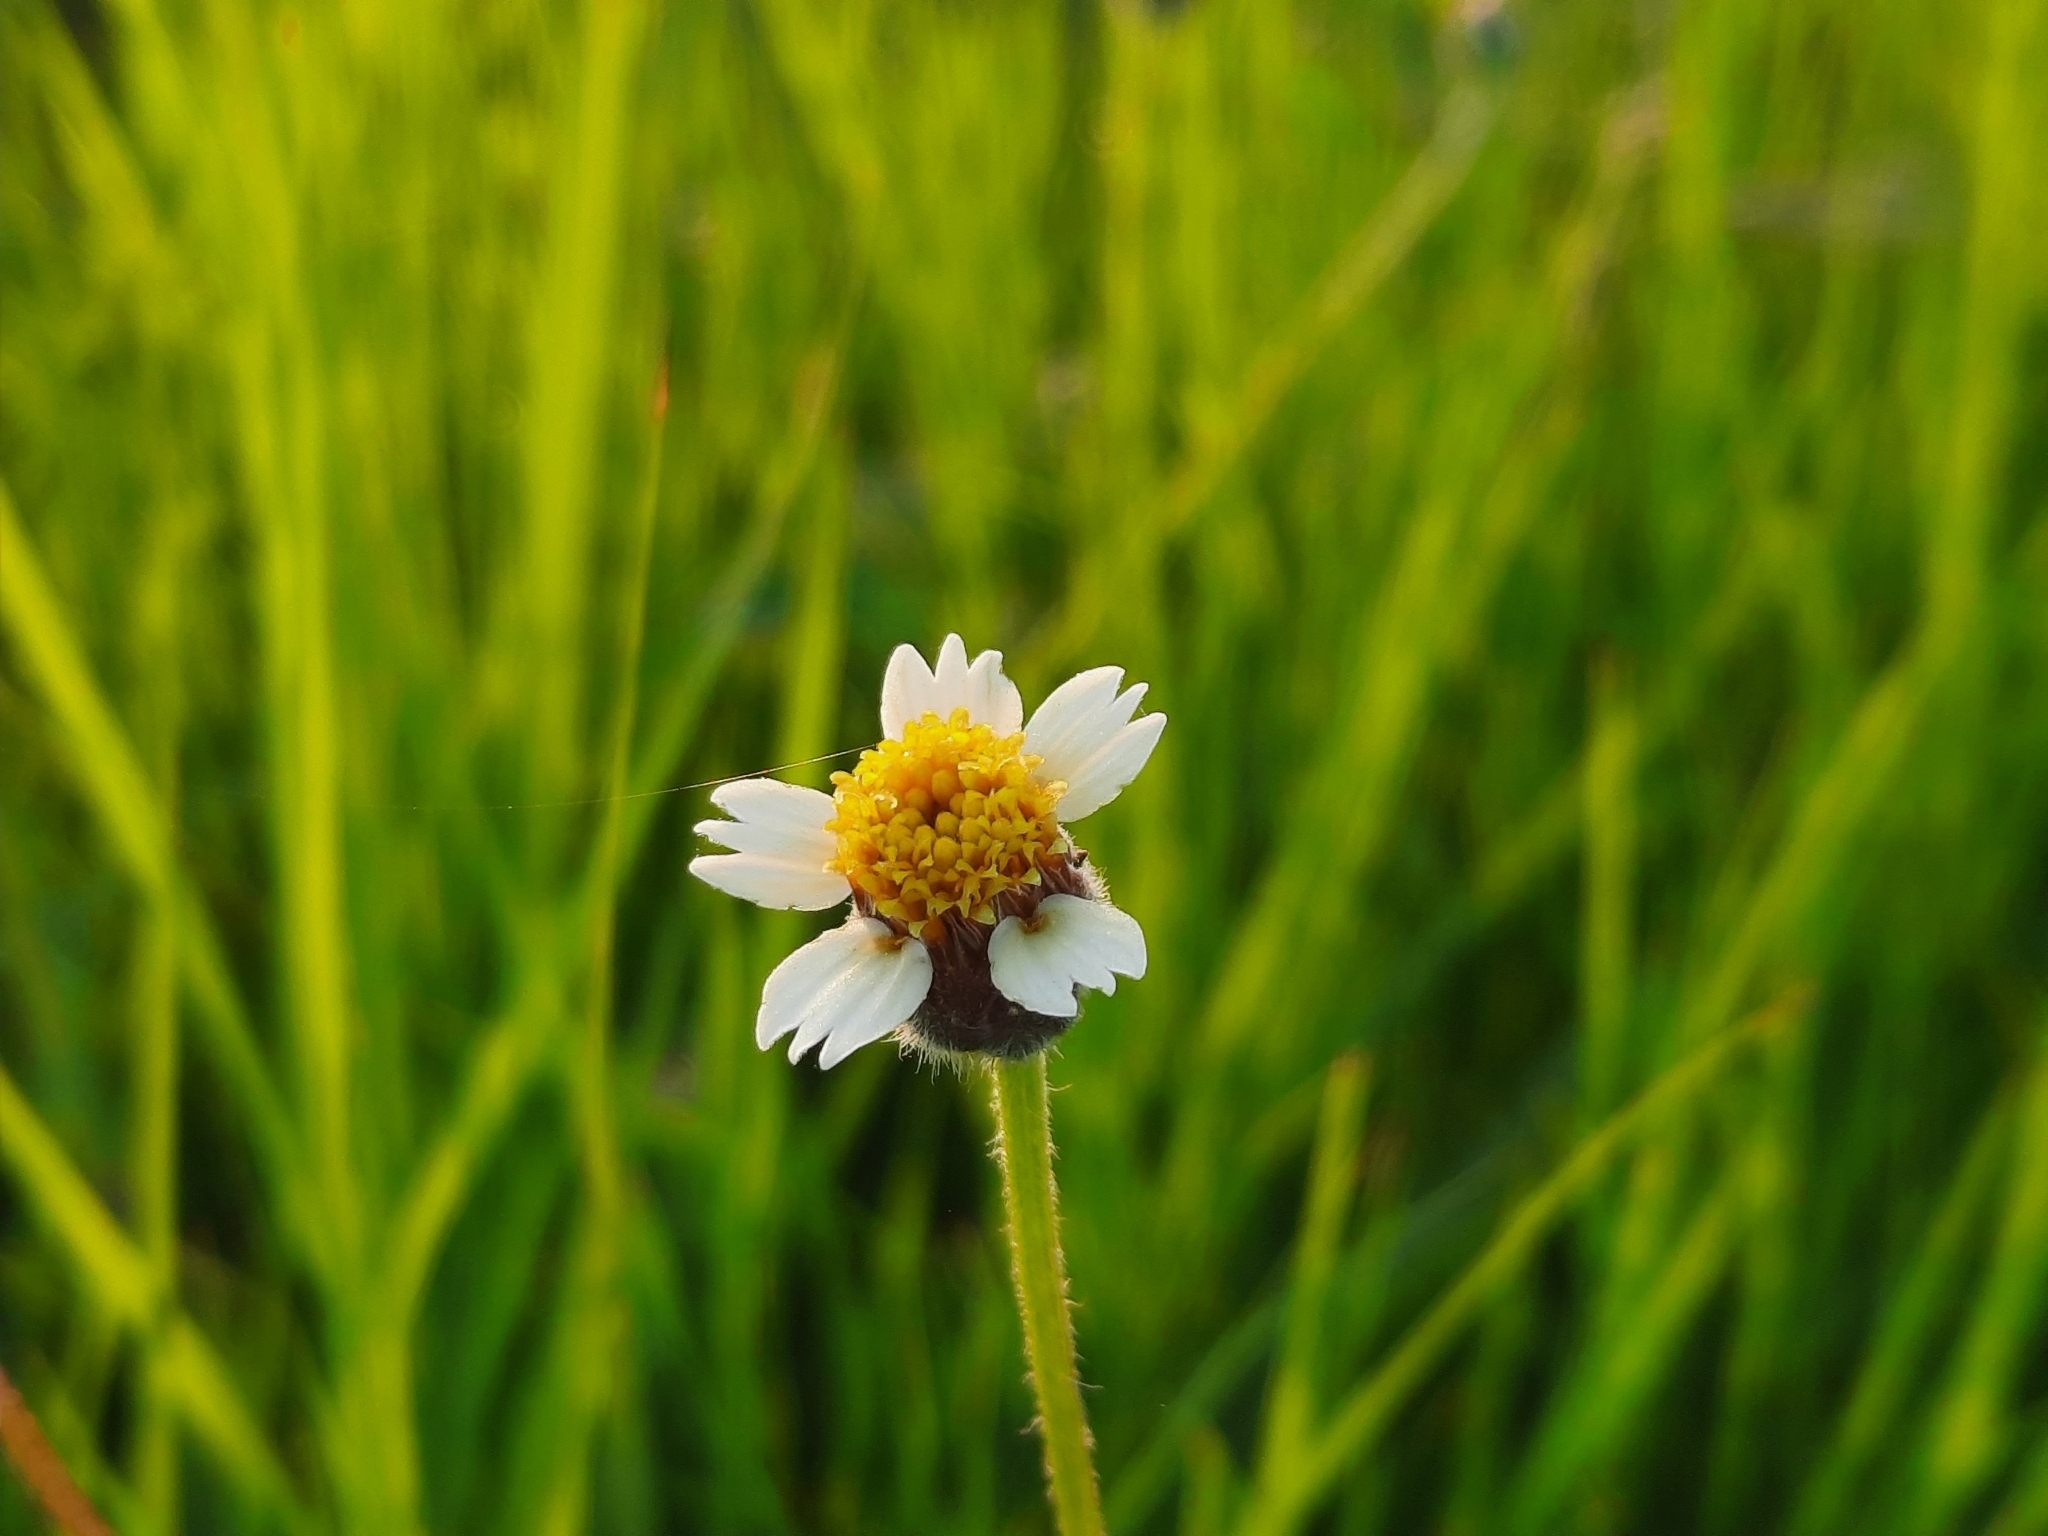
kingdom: Plantae
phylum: Tracheophyta
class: Magnoliopsida
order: Asterales
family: Asteraceae
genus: Tridax
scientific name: Tridax procumbens
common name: Coatbuttons
